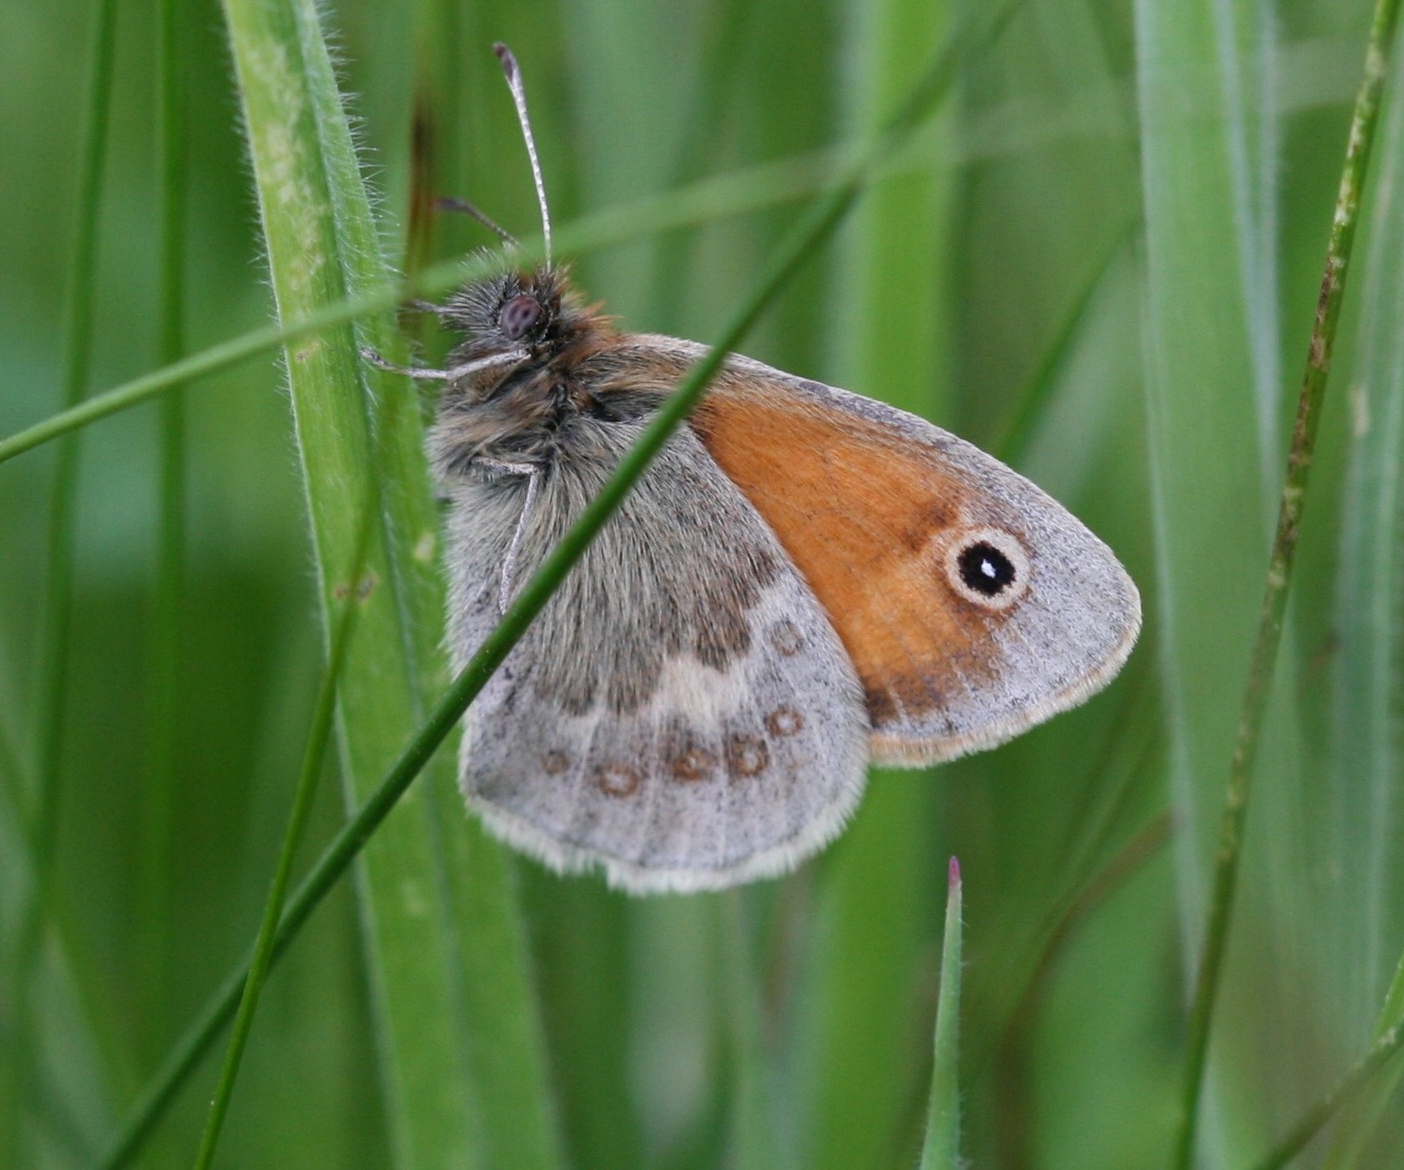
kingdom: Animalia
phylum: Arthropoda
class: Insecta
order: Lepidoptera
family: Nymphalidae
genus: Coenonympha
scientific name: Coenonympha pamphilus
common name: Small heath
